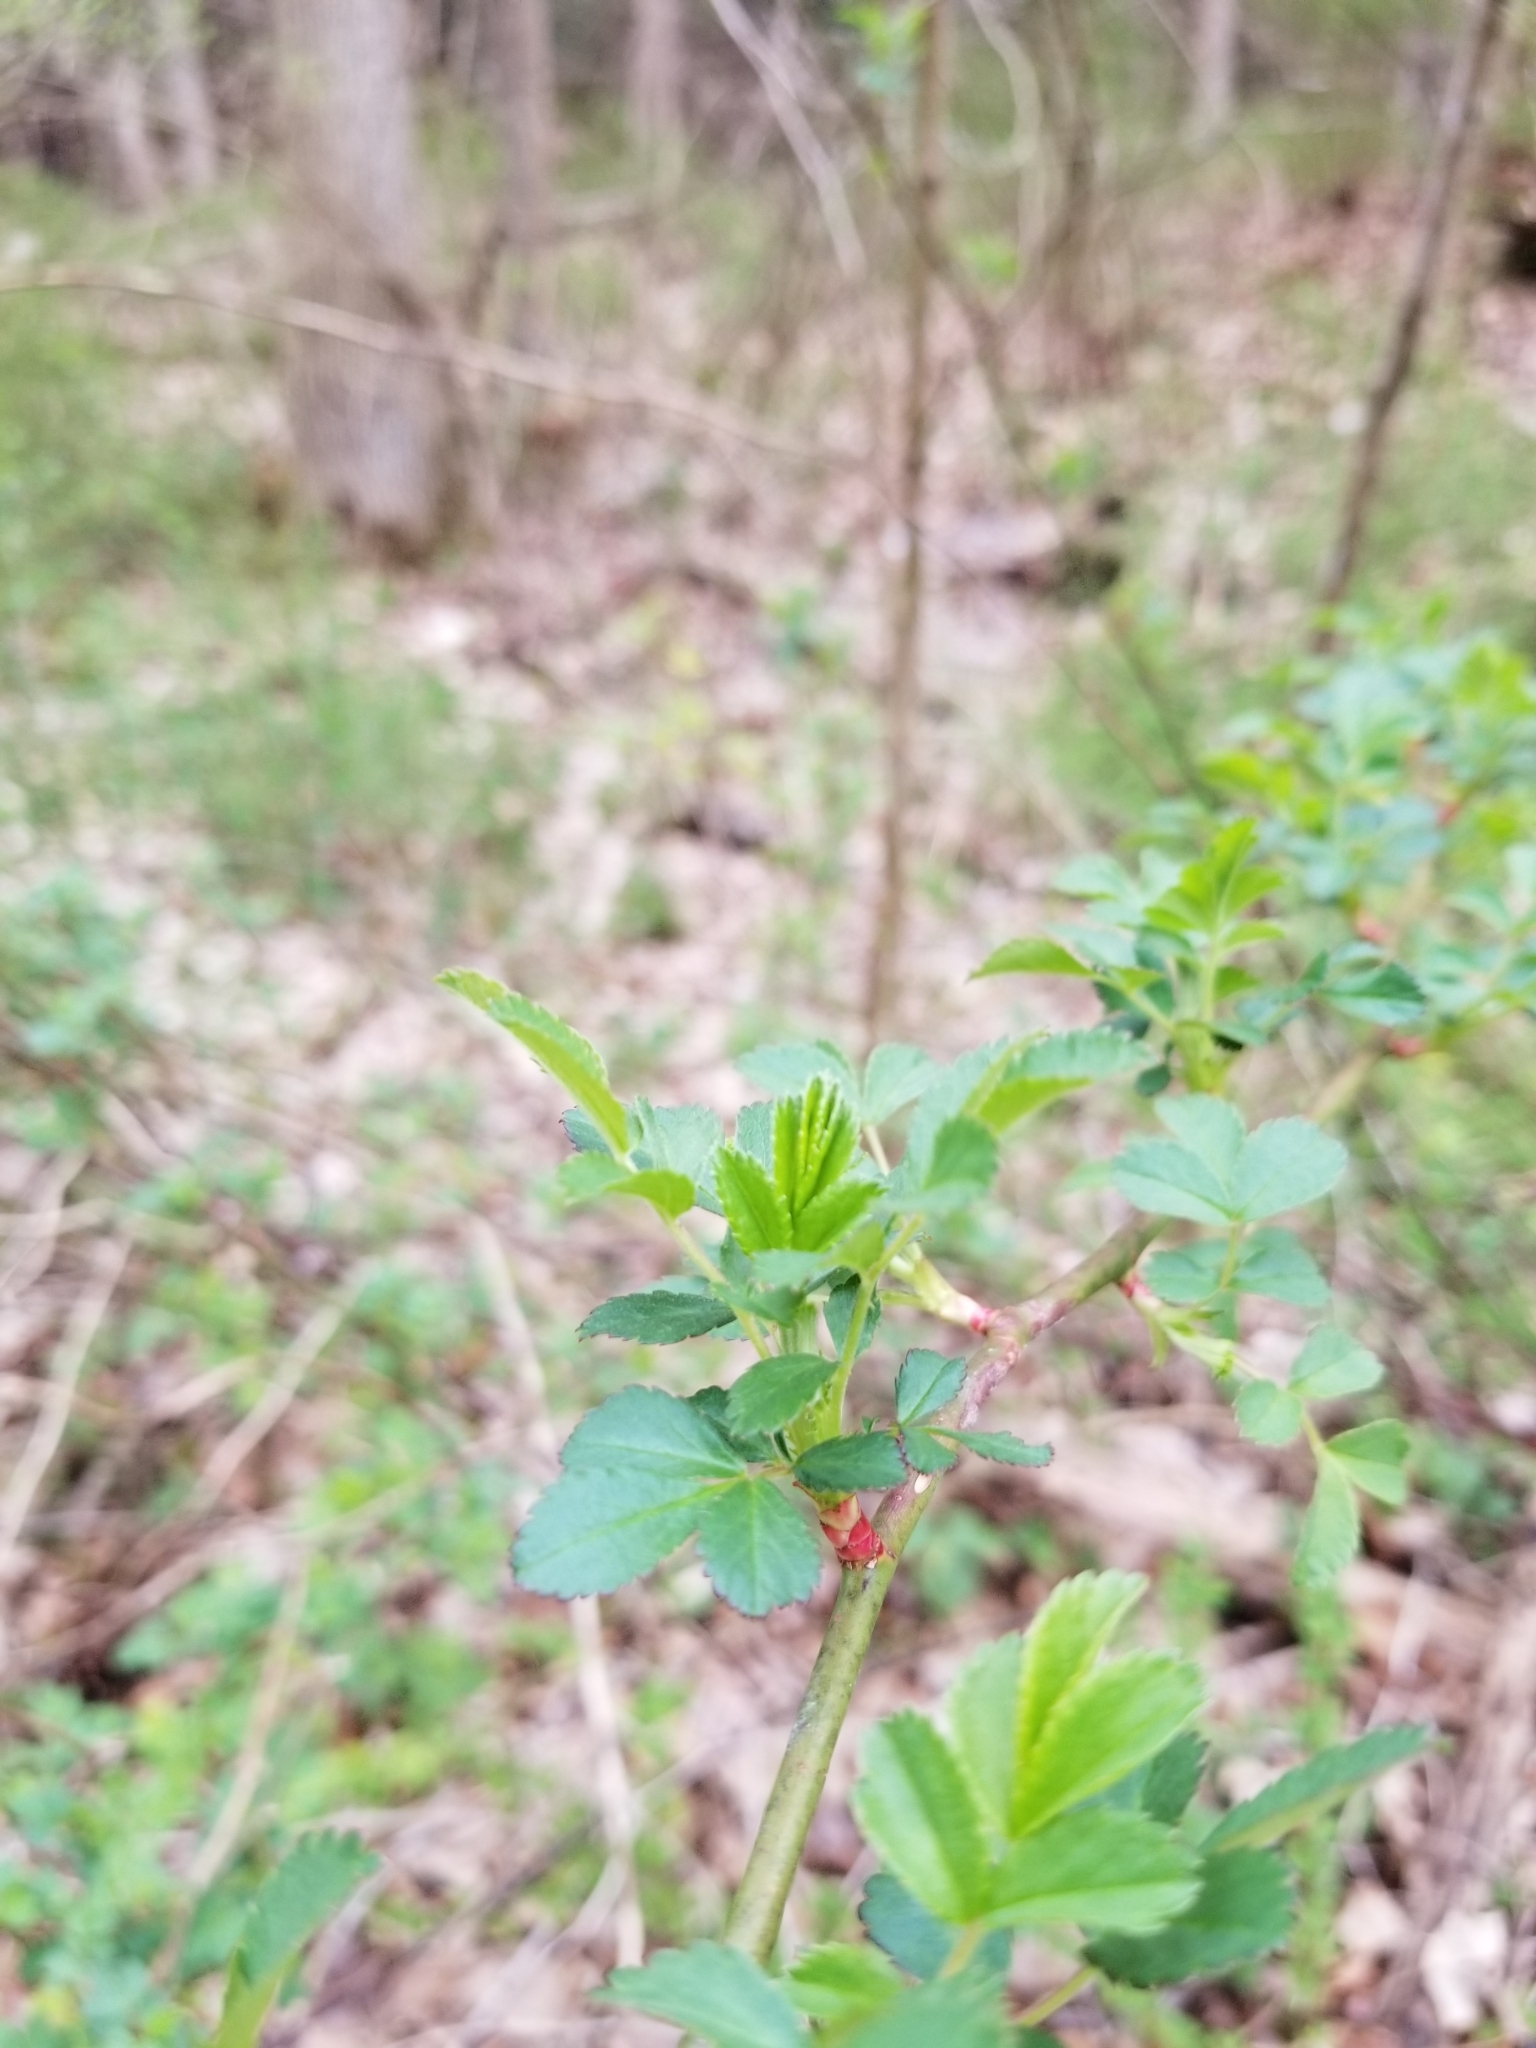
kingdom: Plantae
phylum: Tracheophyta
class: Magnoliopsida
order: Rosales
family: Rosaceae
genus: Rosa
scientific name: Rosa multiflora
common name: Multiflora rose
